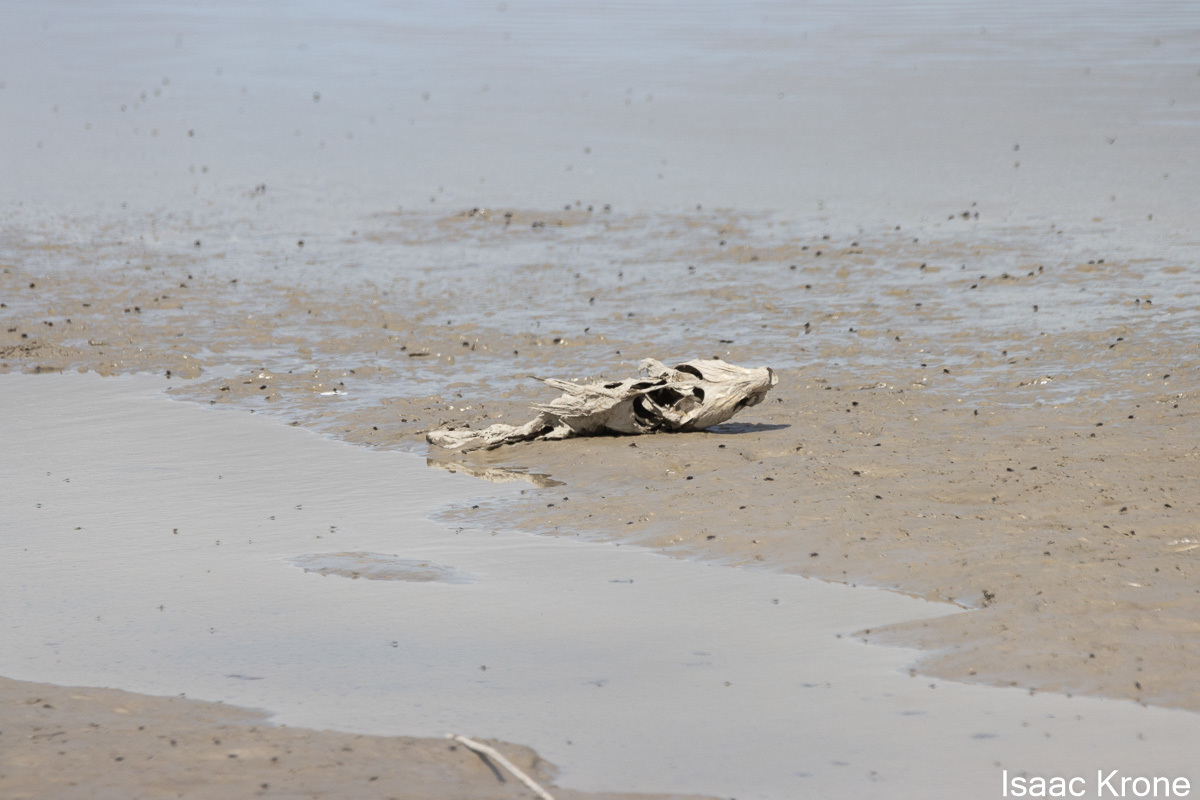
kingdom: Animalia
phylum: Chordata
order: Cypriniformes
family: Cyprinidae
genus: Cyprinus
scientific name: Cyprinus carpio
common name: Common carp
